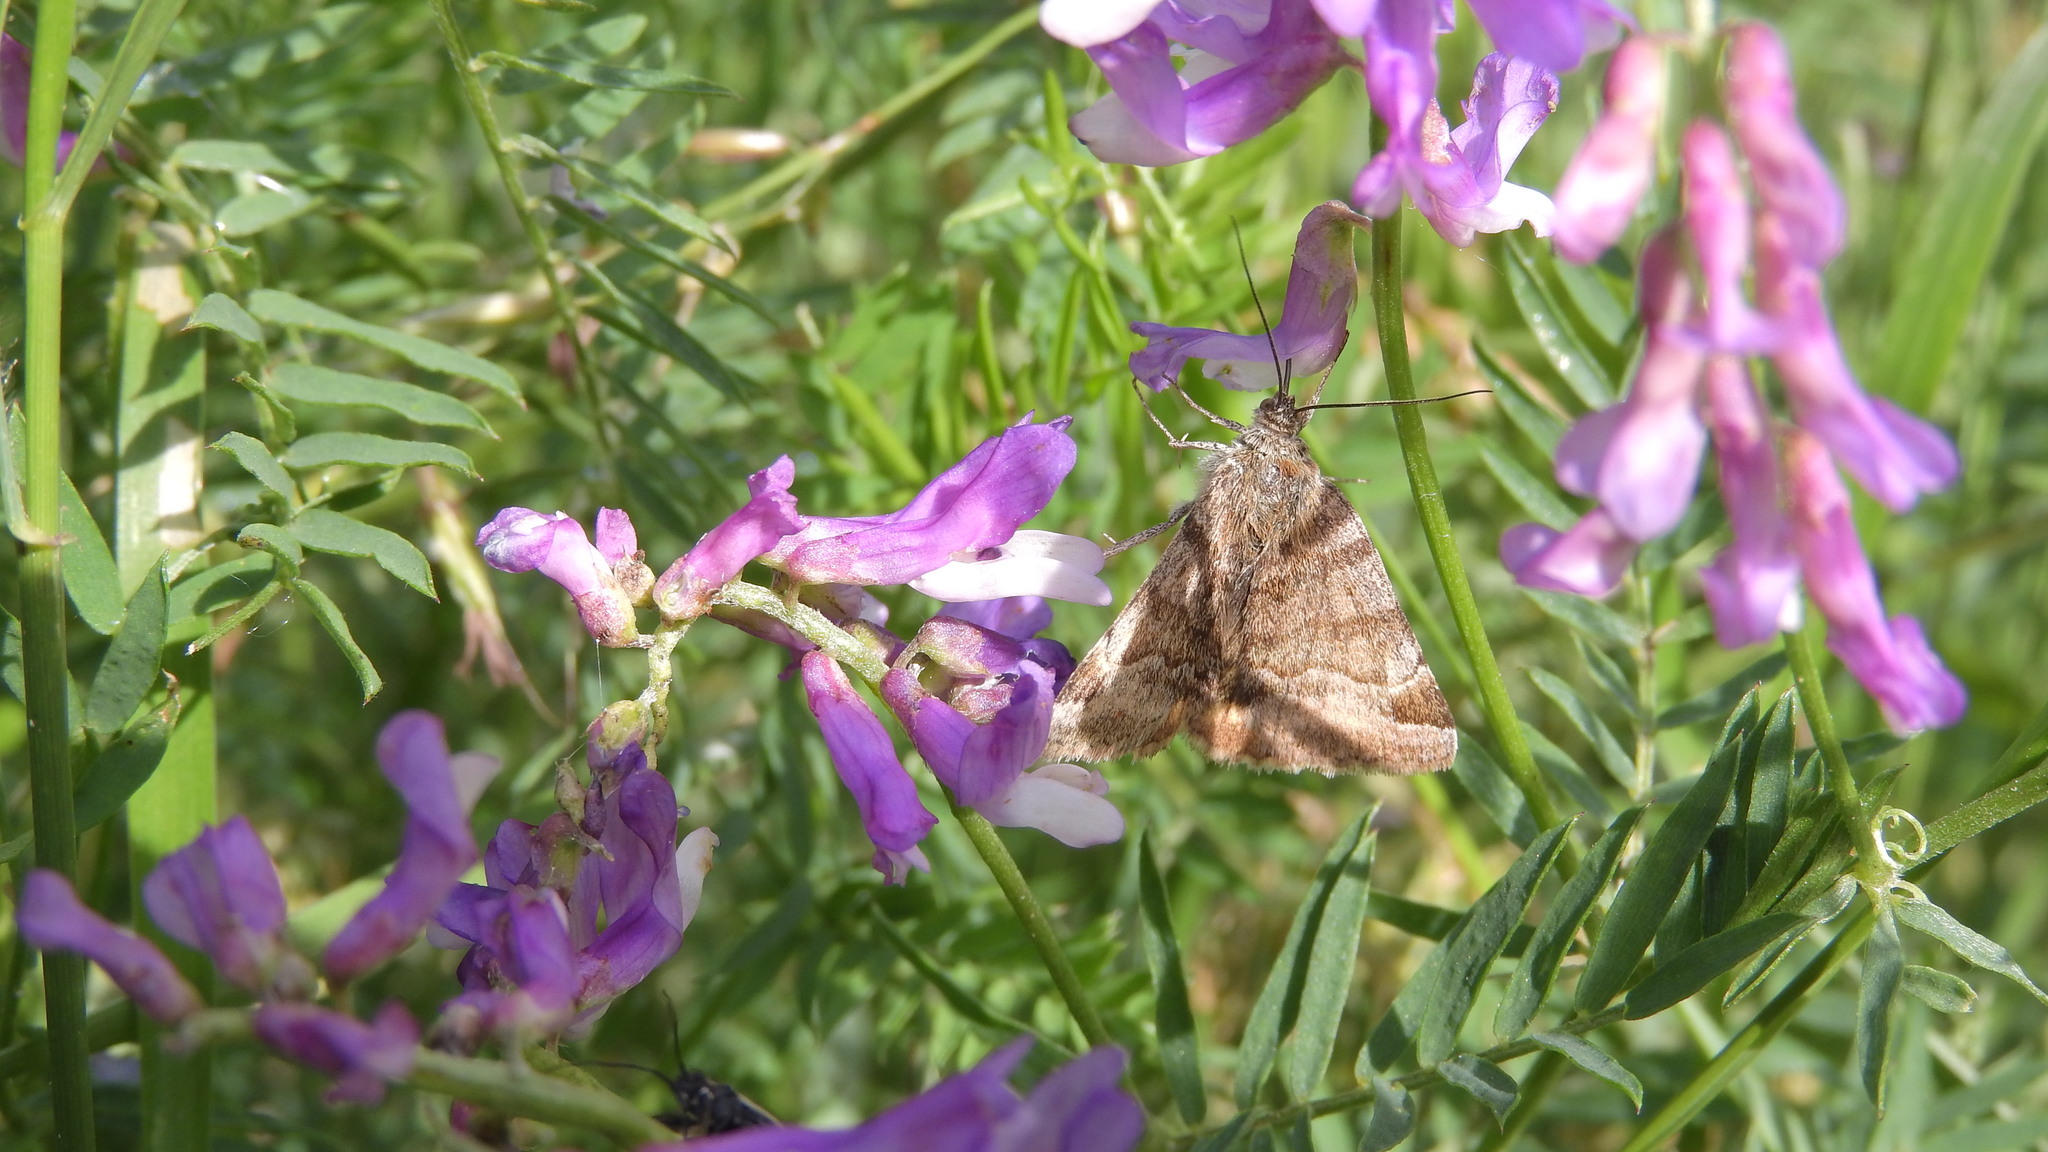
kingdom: Animalia
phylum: Arthropoda
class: Insecta
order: Lepidoptera
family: Erebidae
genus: Euclidia
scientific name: Euclidia glyphica
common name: Burnet companion
